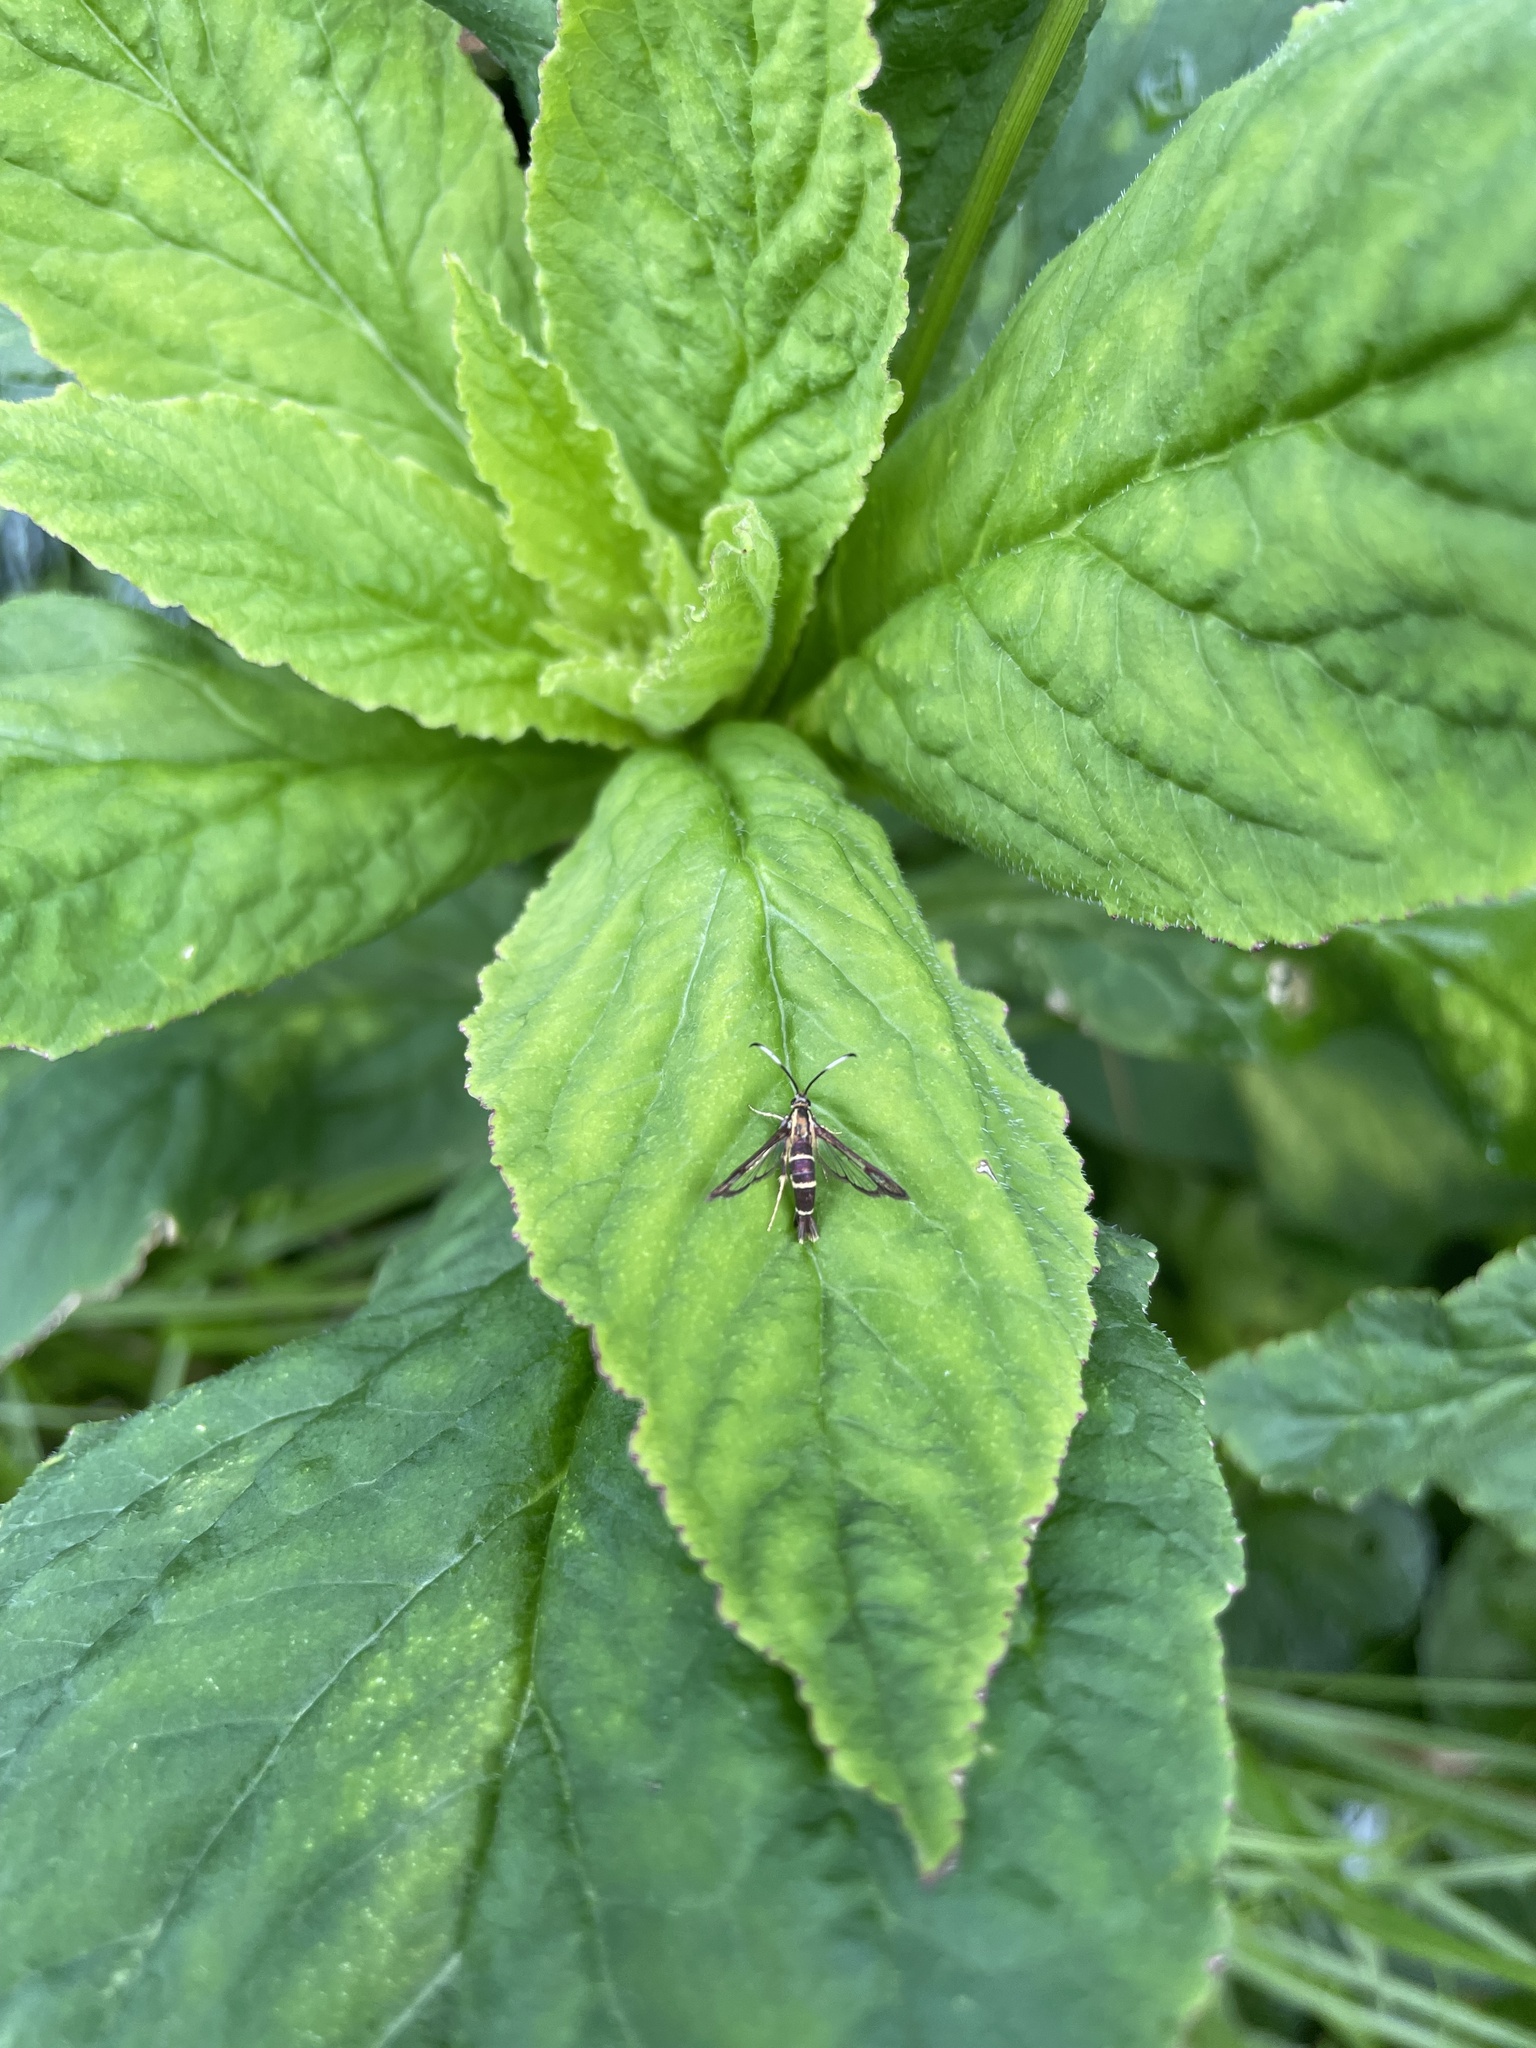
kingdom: Animalia
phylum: Arthropoda
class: Insecta
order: Lepidoptera
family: Sesiidae
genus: Carmenta
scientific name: Carmenta bassiformis
